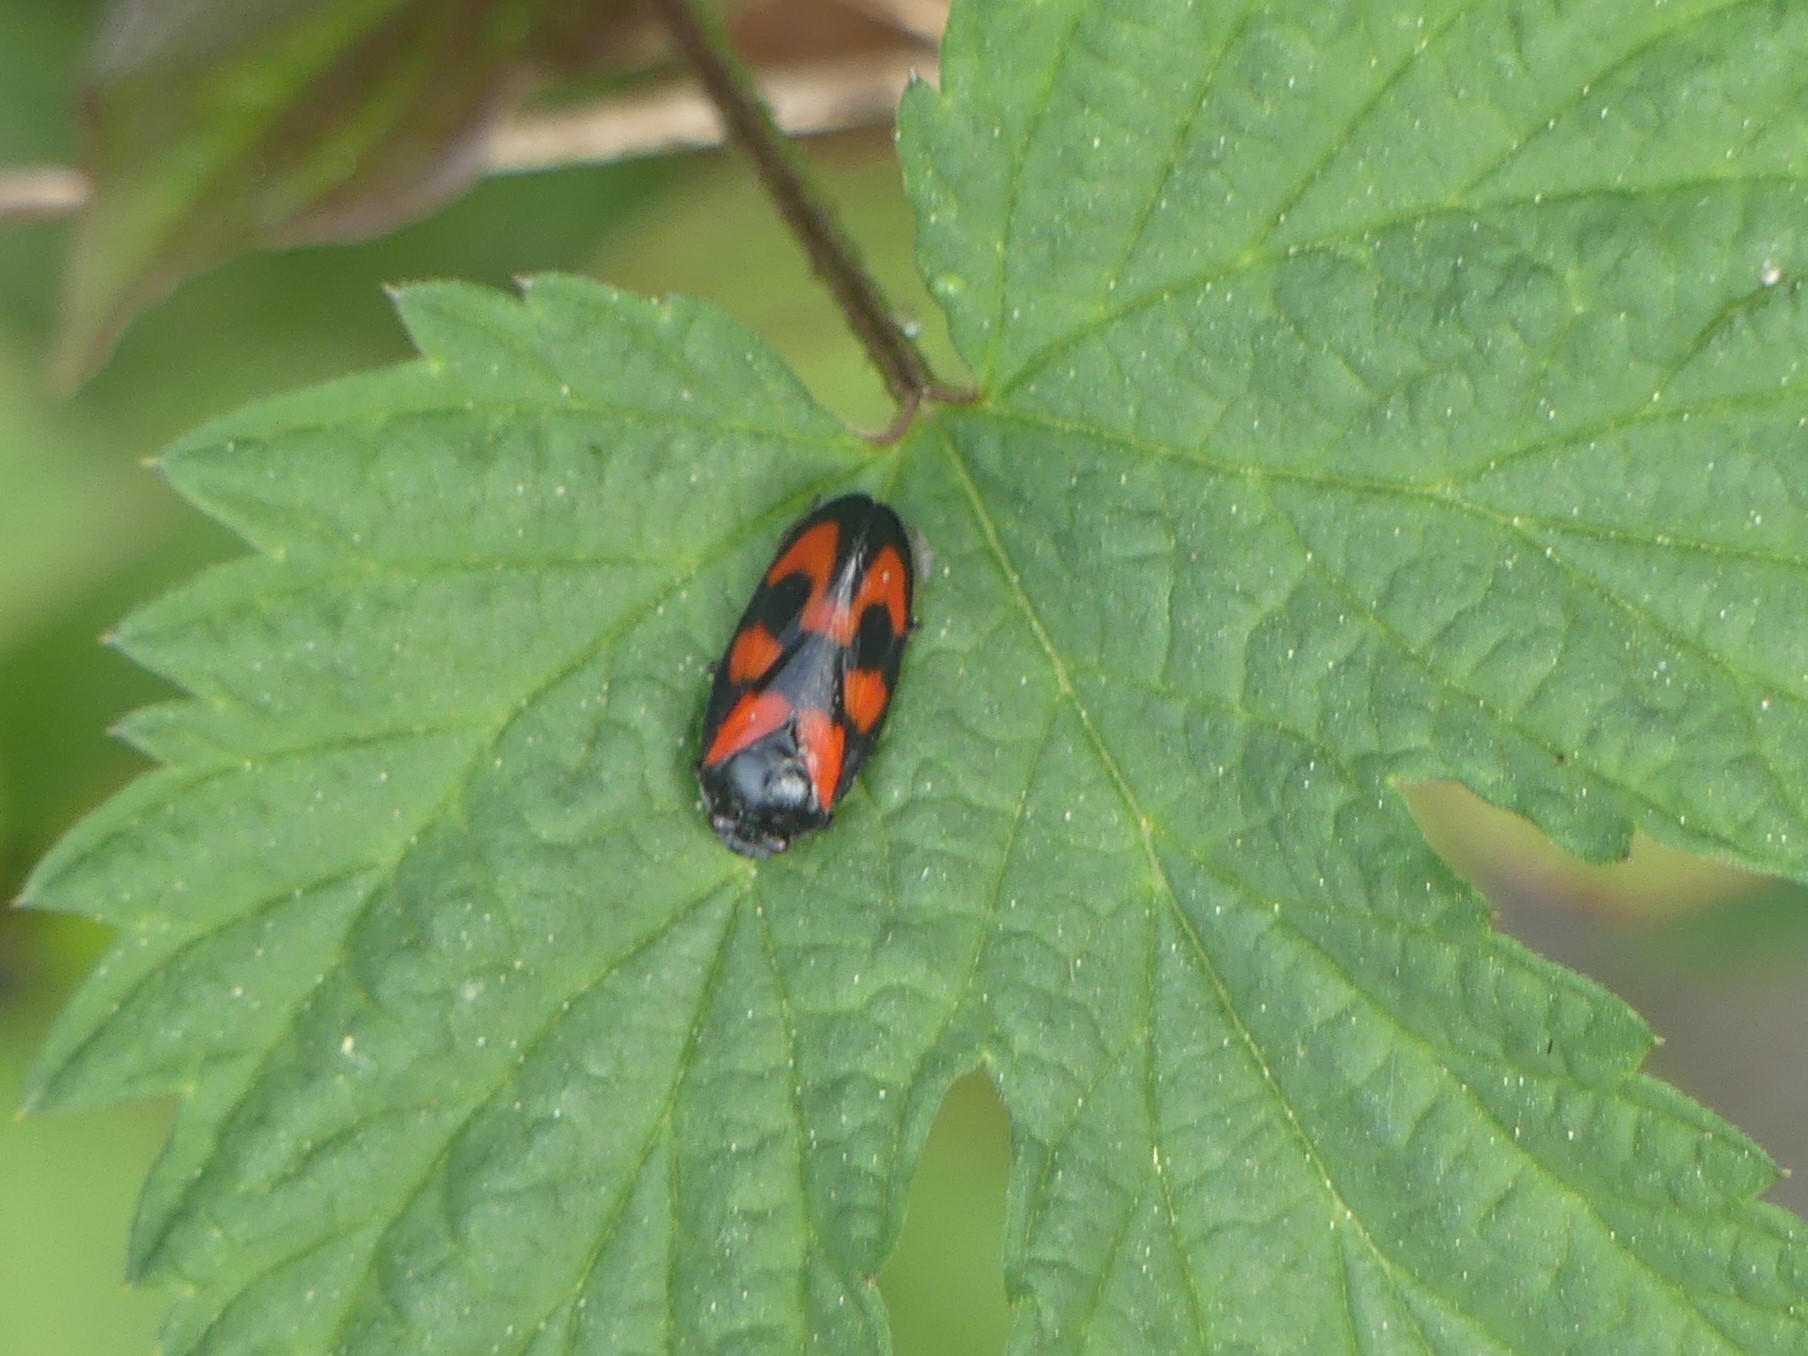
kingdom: Animalia
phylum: Arthropoda
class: Insecta
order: Hemiptera
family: Cercopidae
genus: Cercopis
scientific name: Cercopis vulnerata
